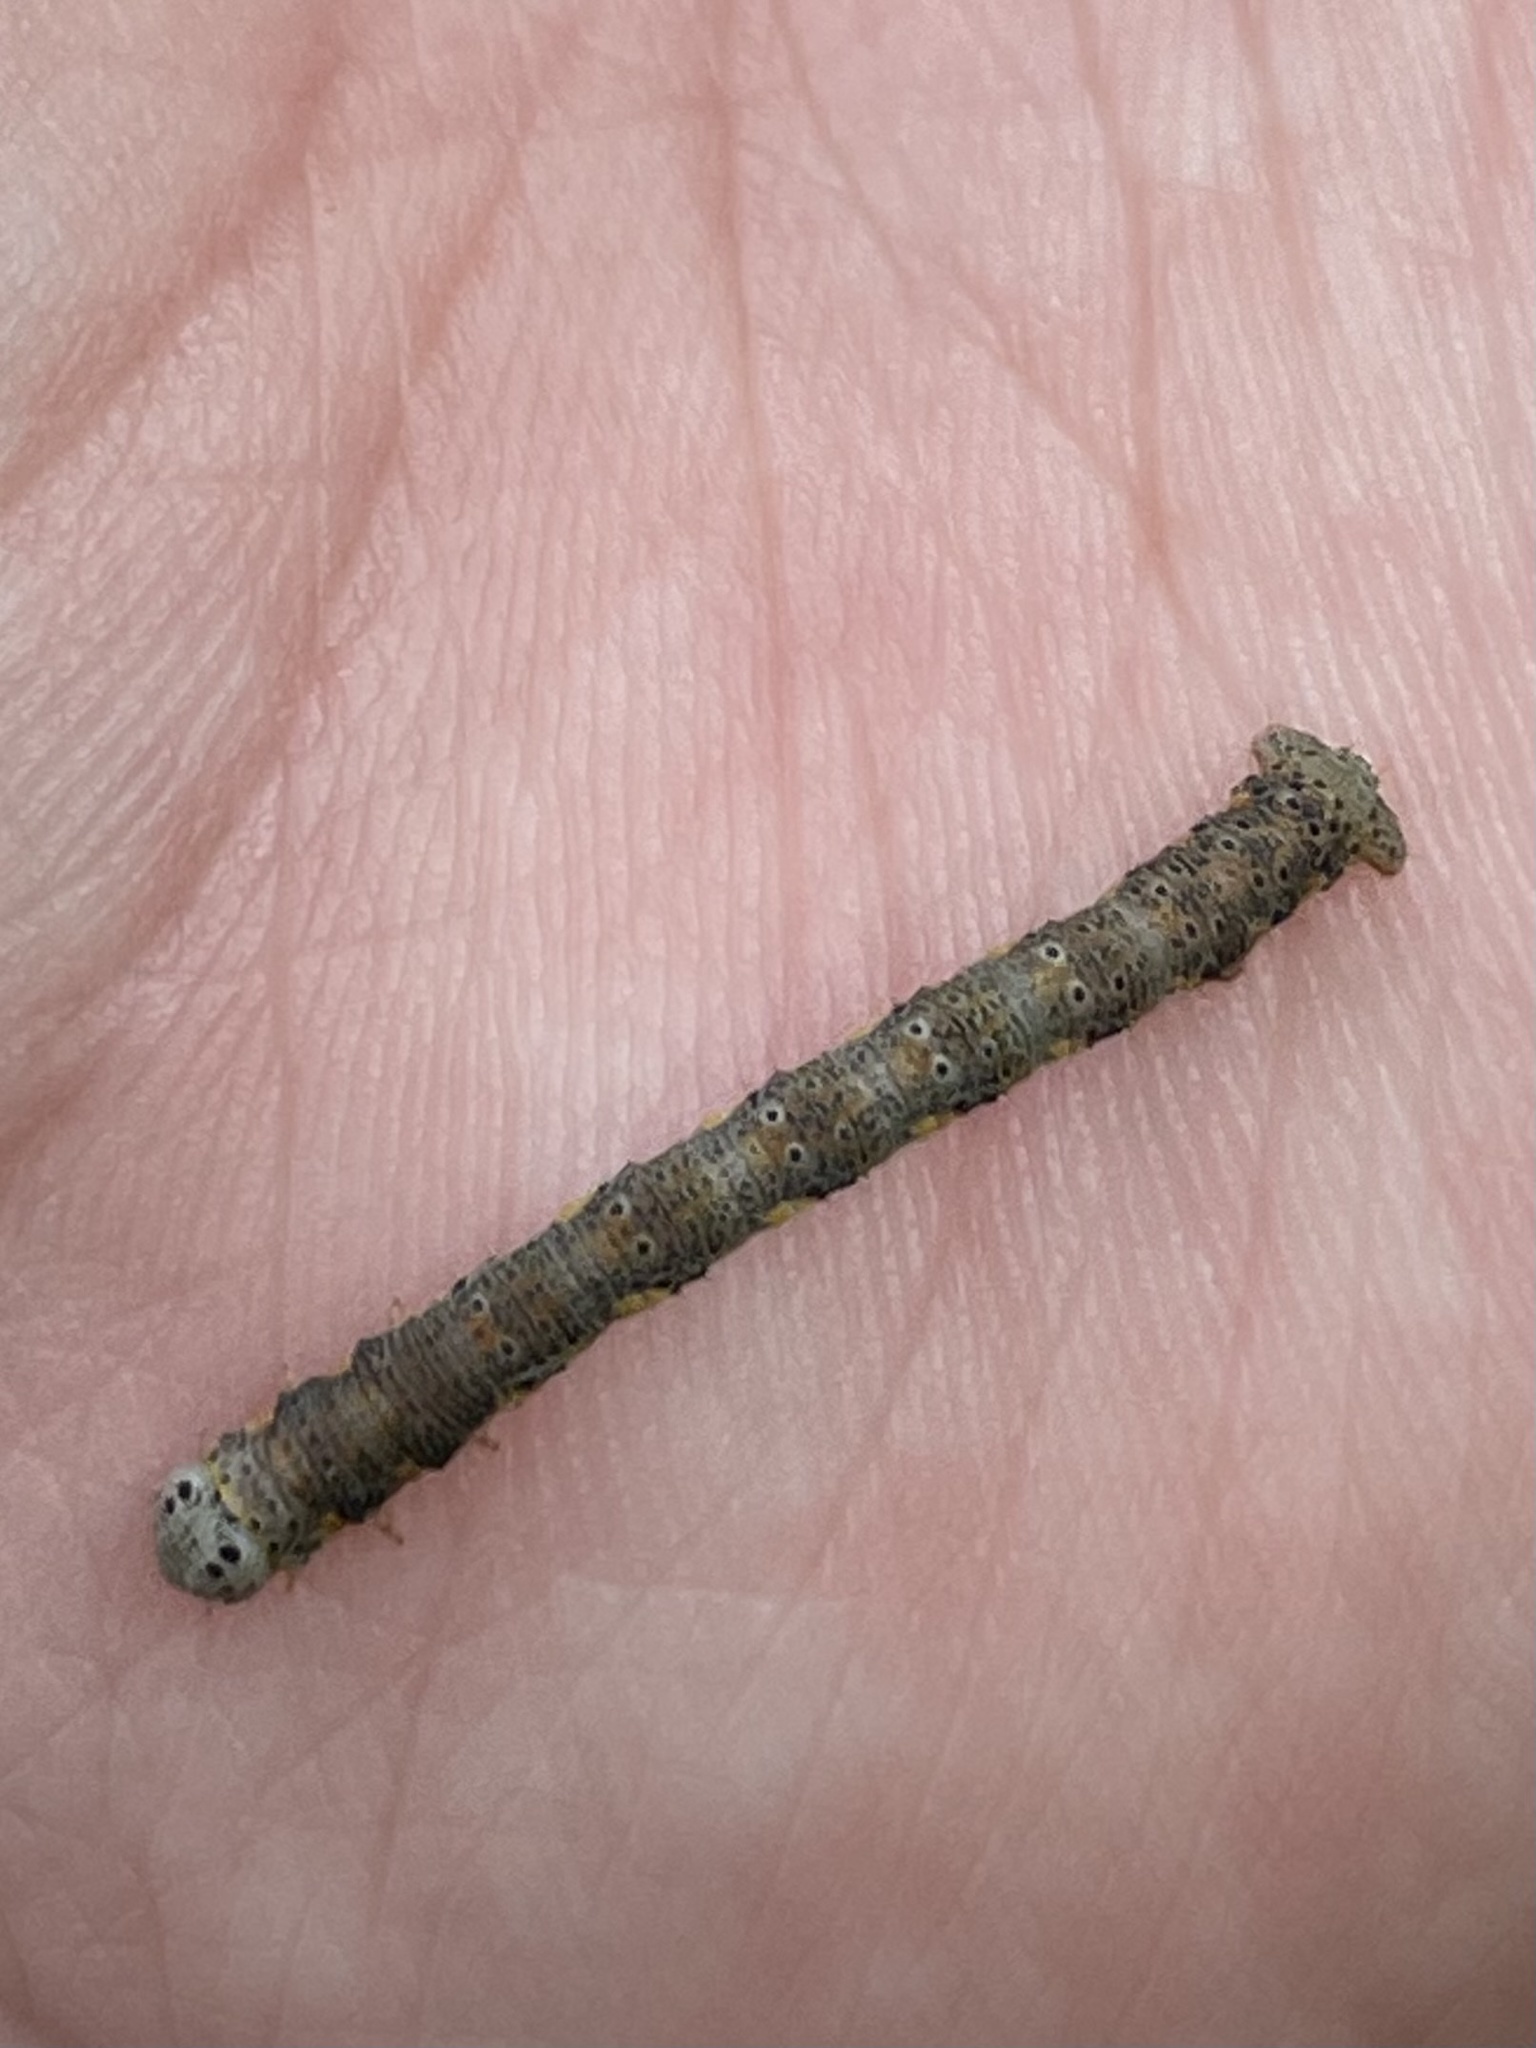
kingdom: Animalia
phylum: Arthropoda
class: Insecta
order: Lepidoptera
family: Geometridae
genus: Isturgia
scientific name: Isturgia dislocaria
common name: Pale-viened enconista
